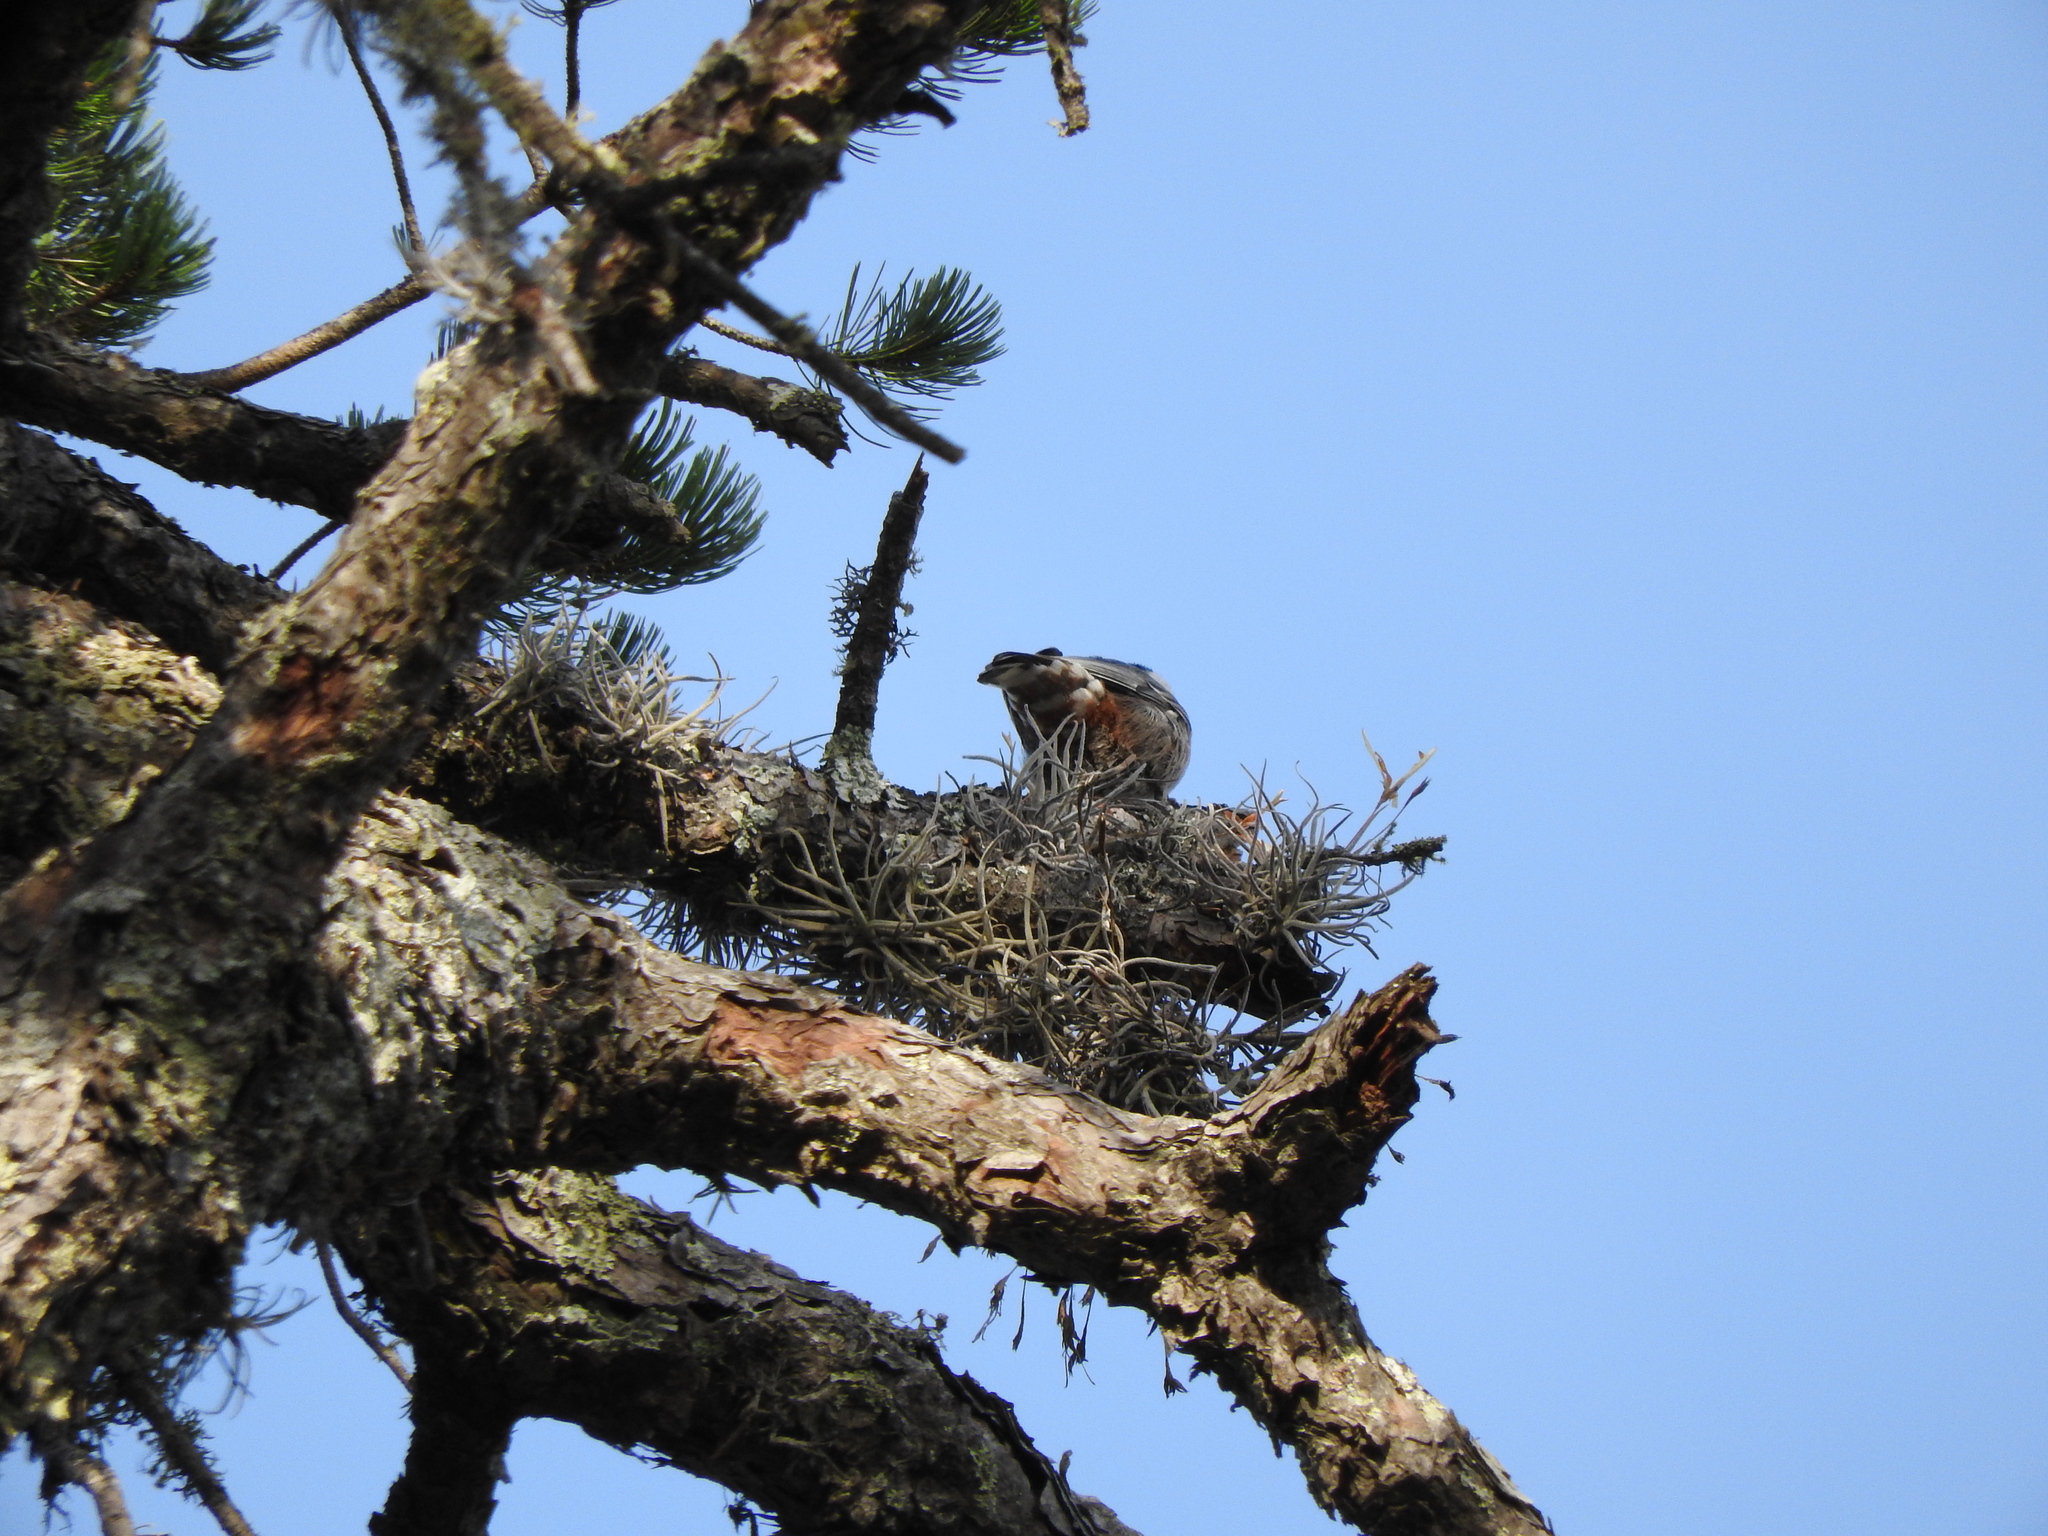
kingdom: Animalia
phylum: Chordata
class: Aves
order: Passeriformes
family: Sittidae
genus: Sitta
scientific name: Sitta carolinensis
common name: White-breasted nuthatch
